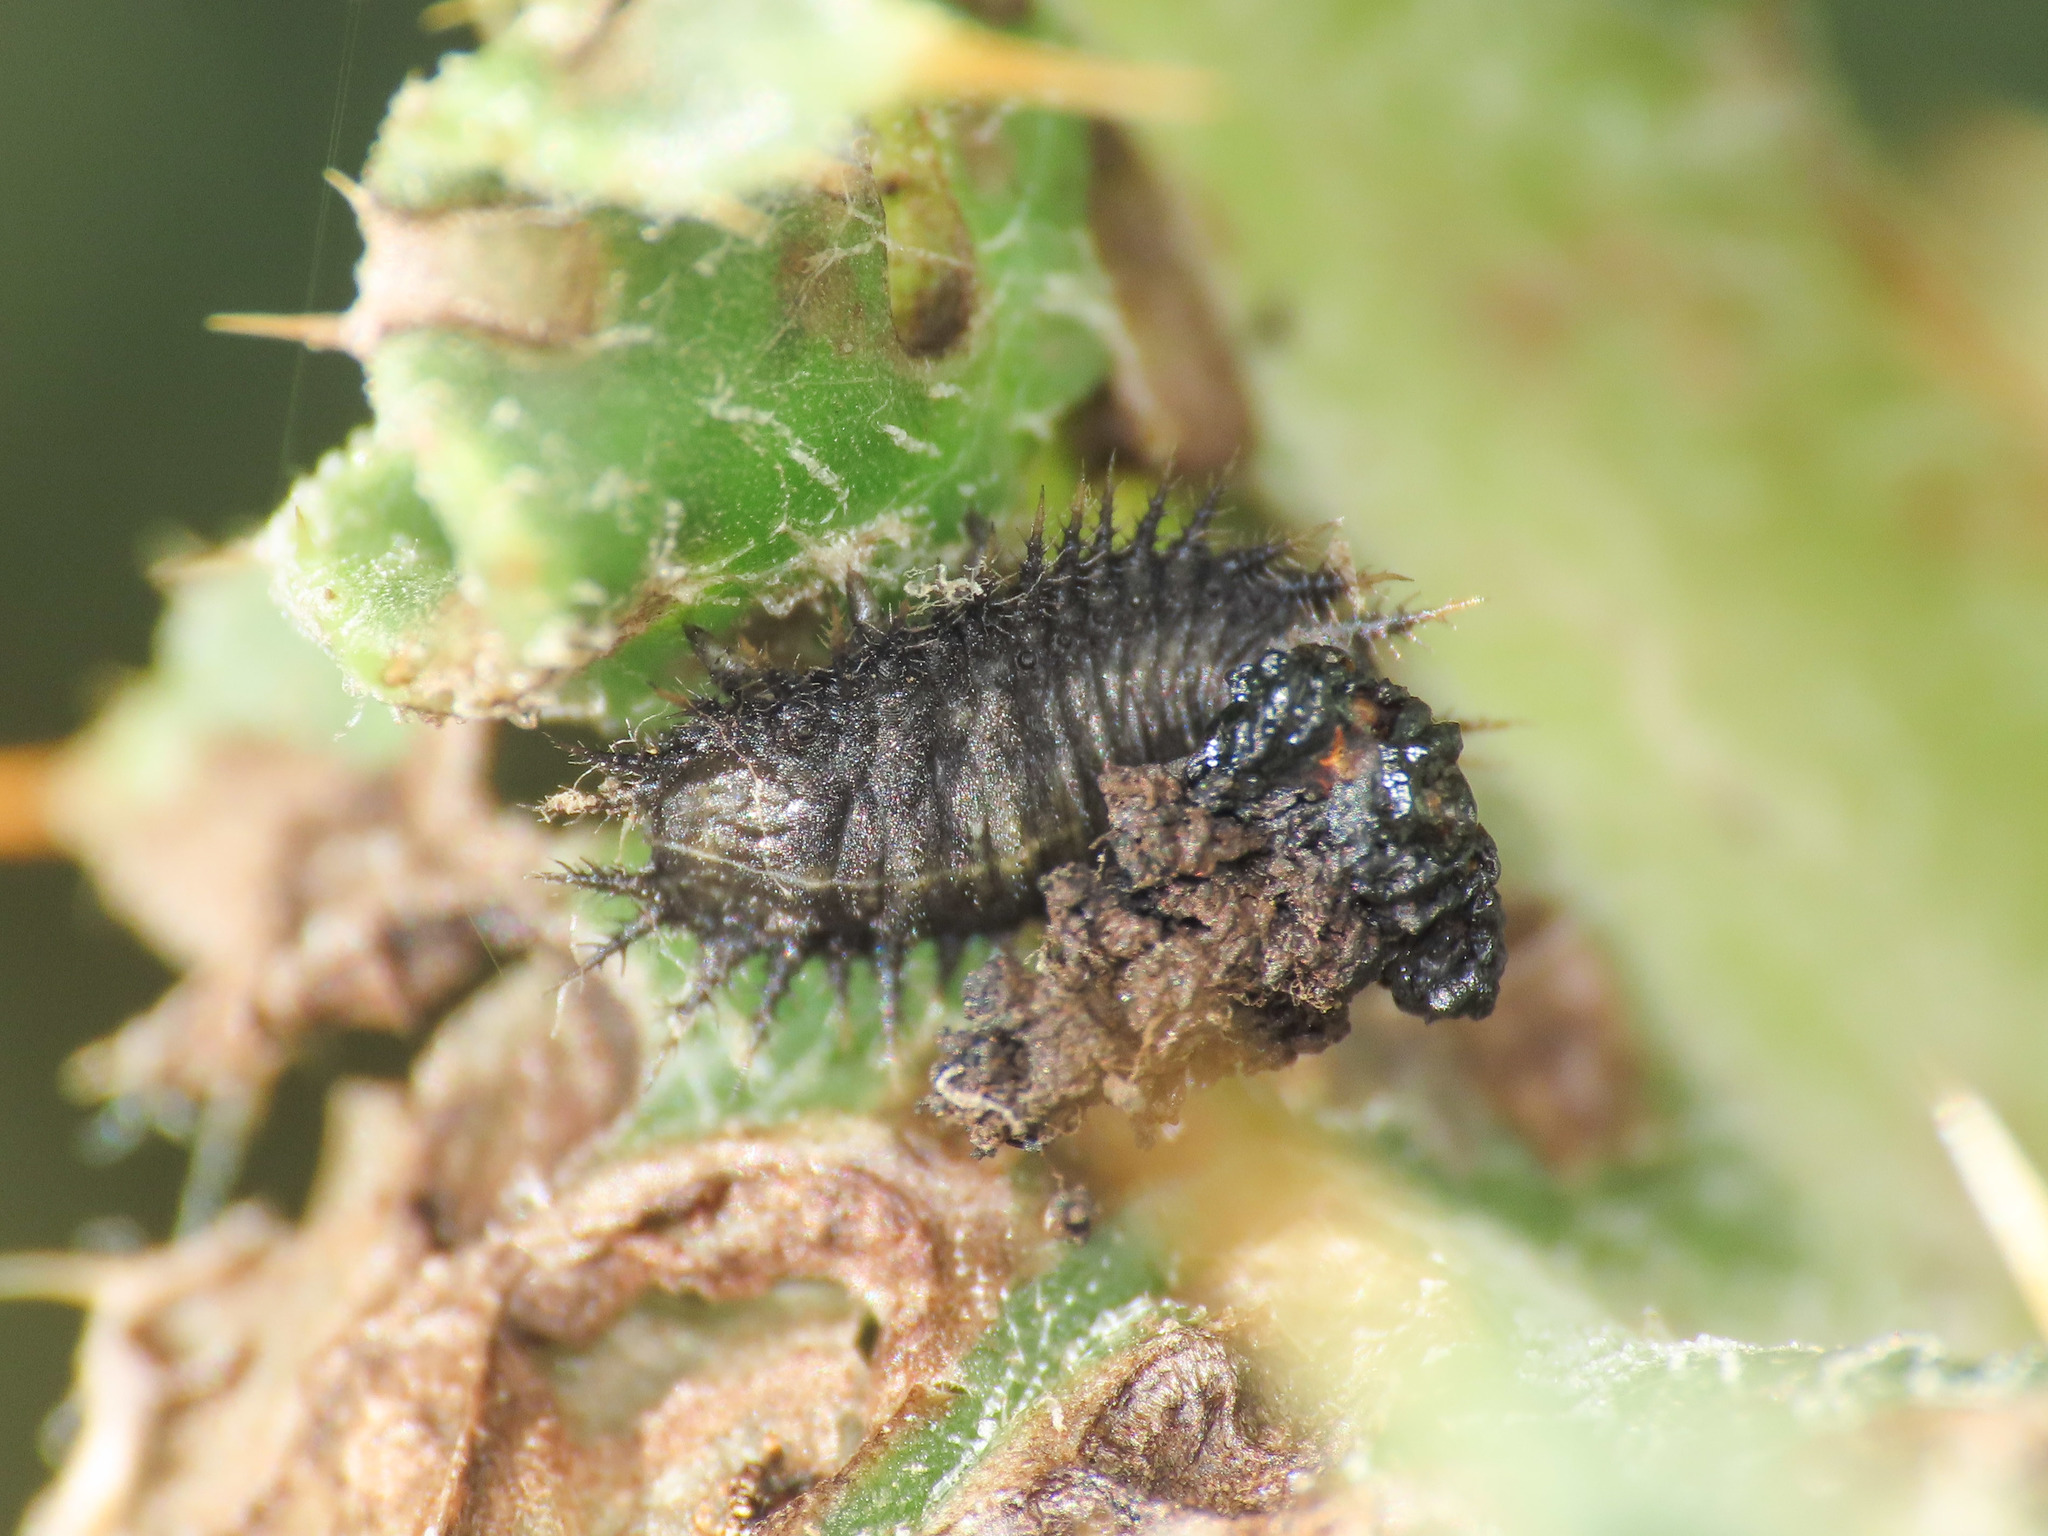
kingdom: Animalia
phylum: Arthropoda
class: Insecta
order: Coleoptera
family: Chrysomelidae
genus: Cassida
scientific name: Cassida alpina
